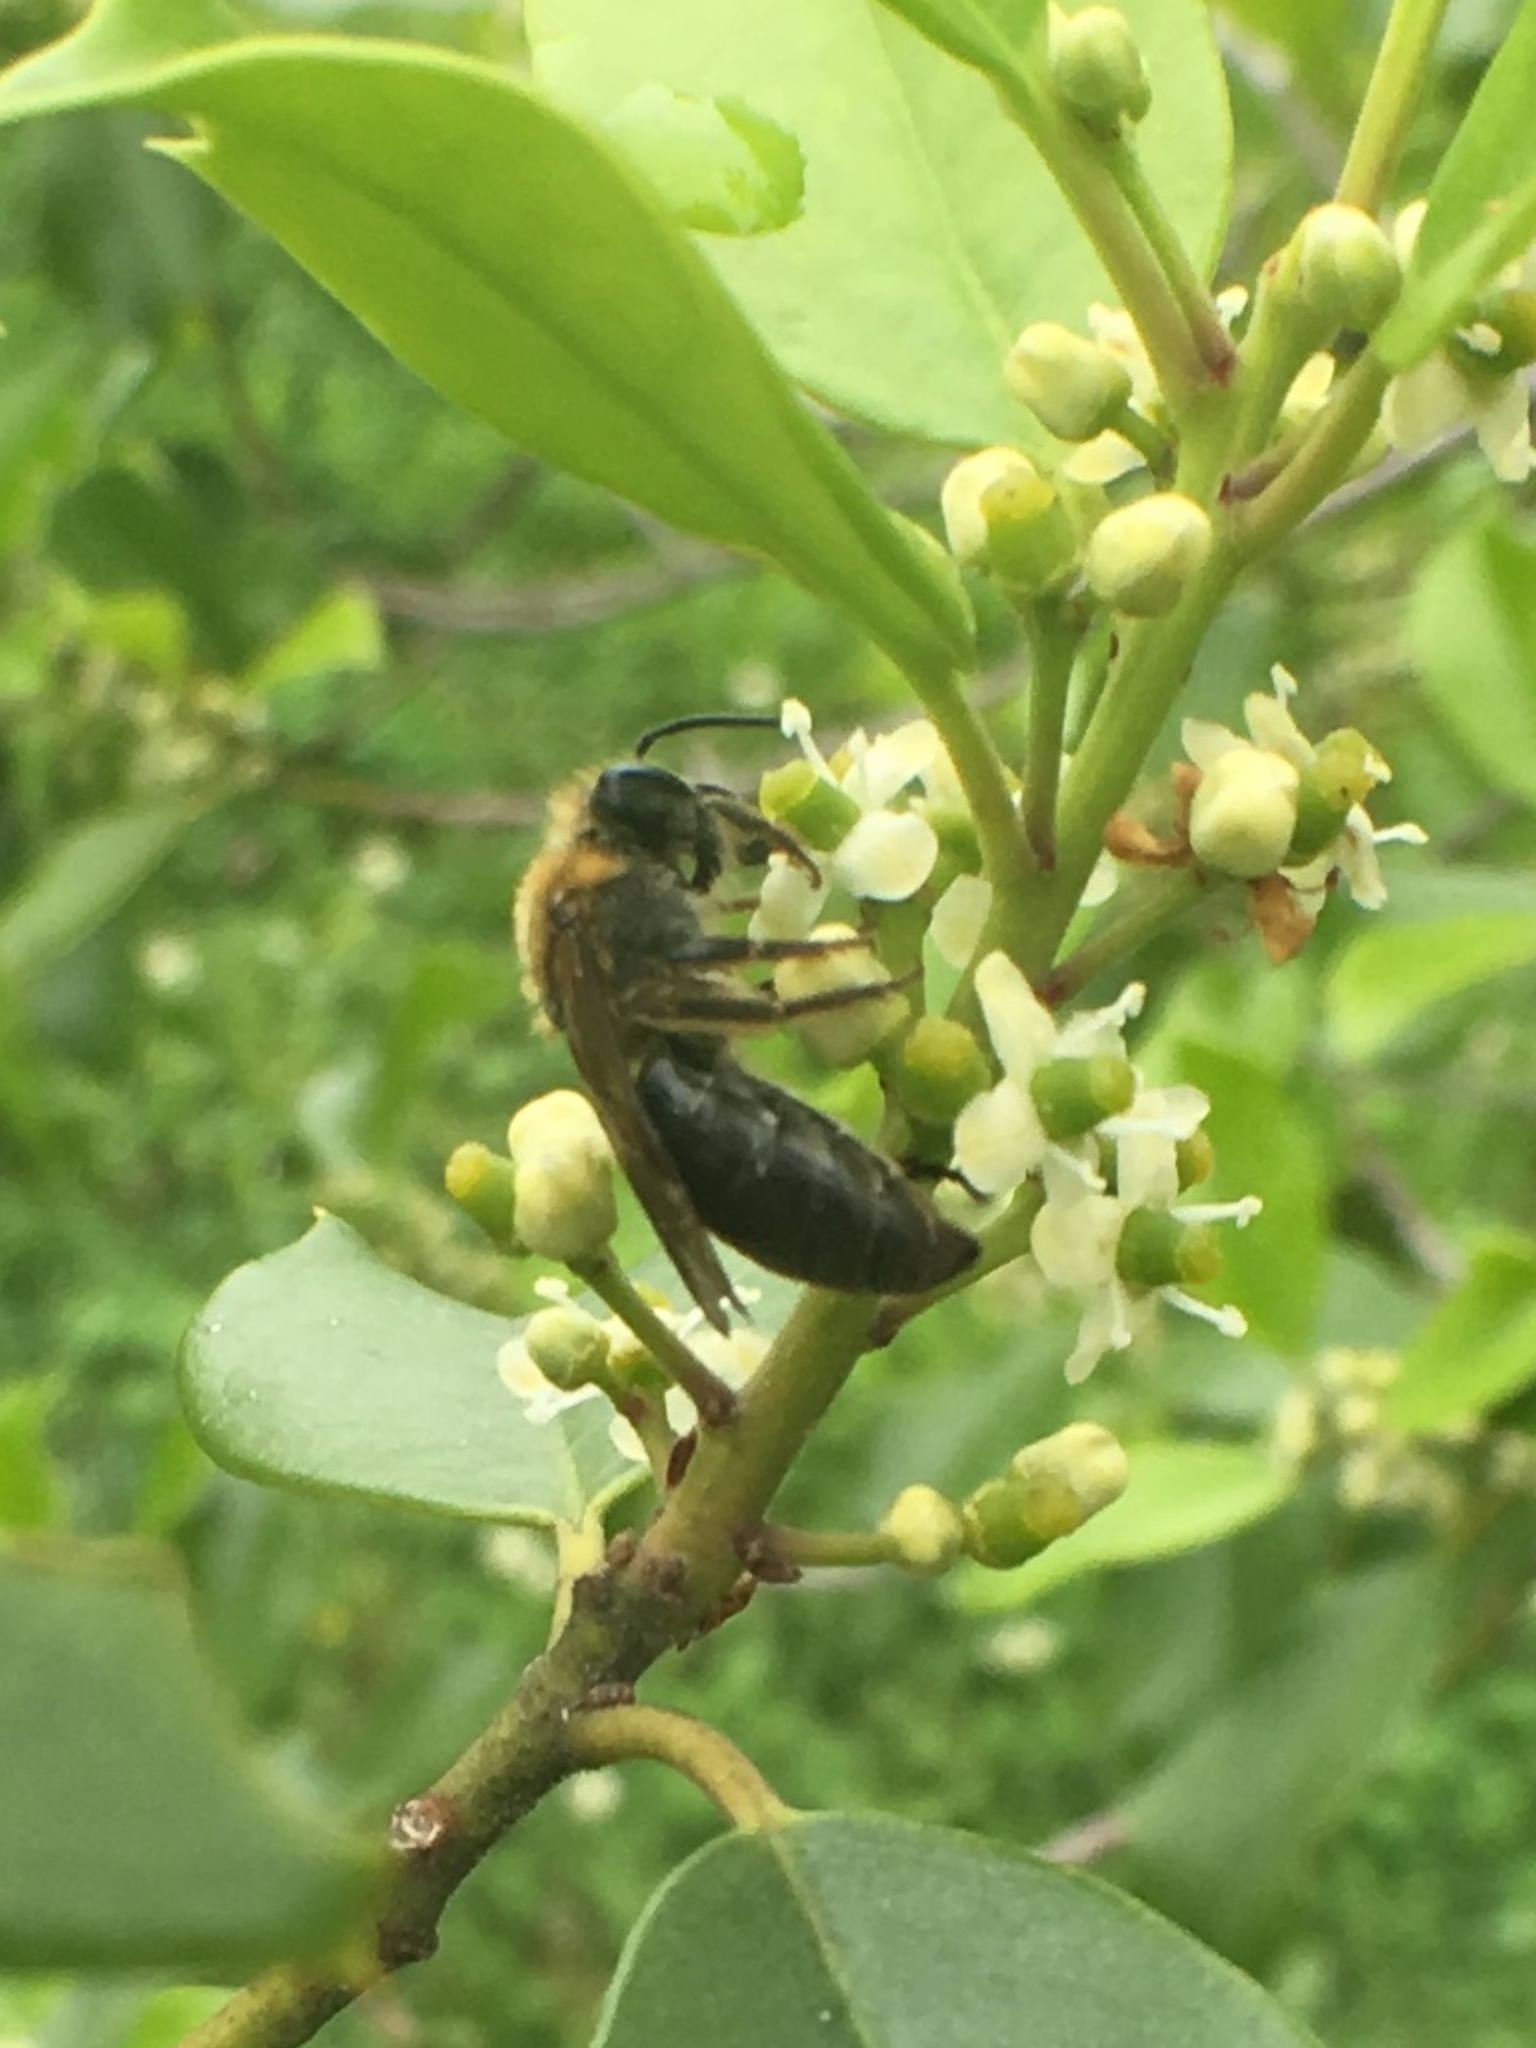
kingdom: Animalia
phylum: Arthropoda
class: Insecta
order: Hymenoptera
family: Colletidae
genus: Colletes
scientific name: Colletes thoracicus
